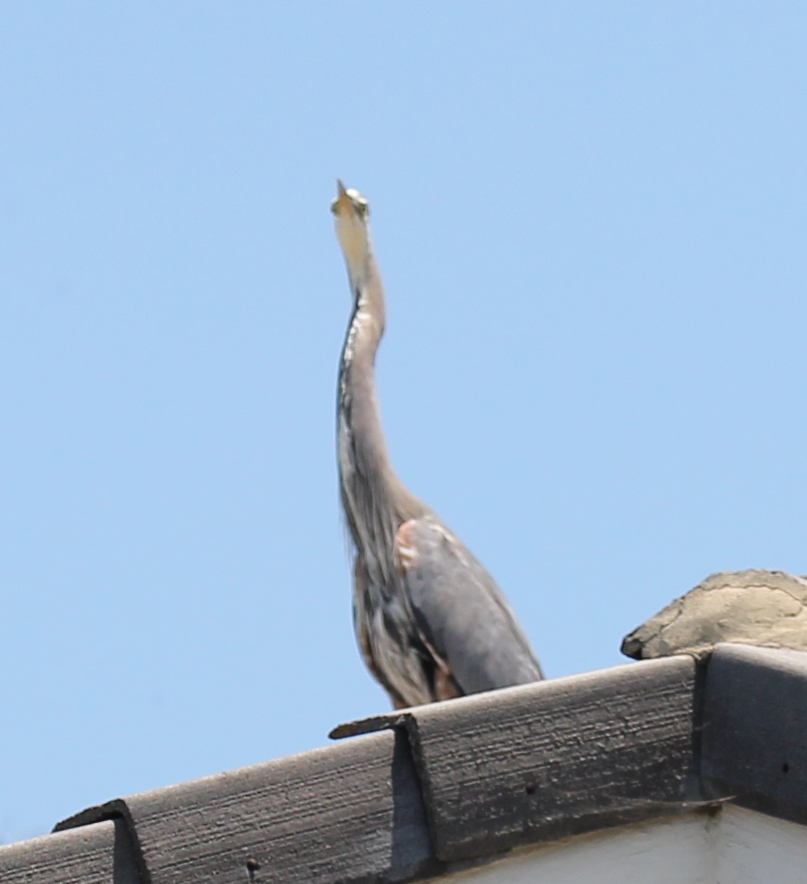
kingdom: Animalia
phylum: Chordata
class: Aves
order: Pelecaniformes
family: Ardeidae
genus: Ardea
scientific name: Ardea herodias
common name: Great blue heron
